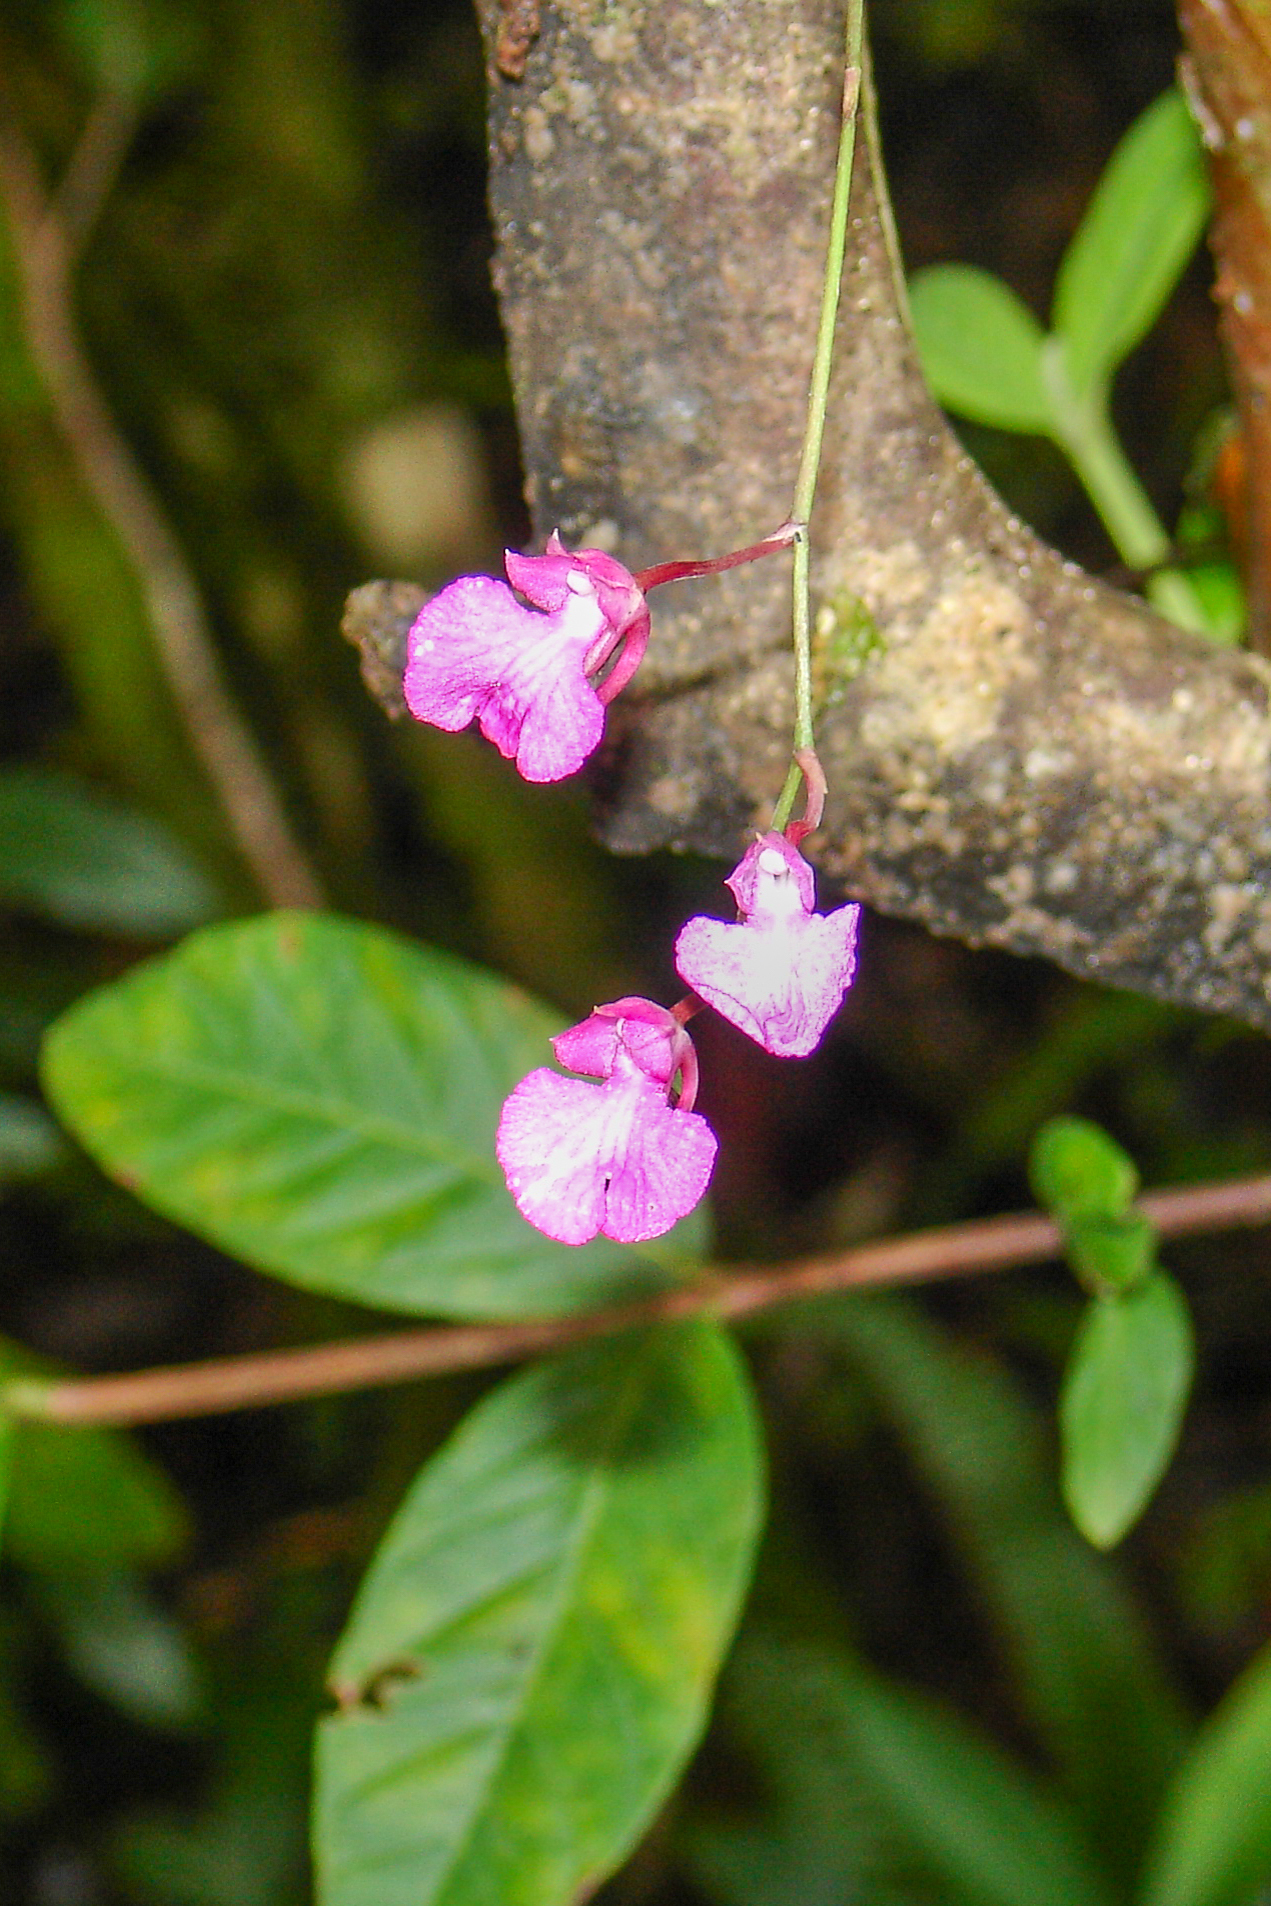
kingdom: Plantae
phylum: Tracheophyta
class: Liliopsida
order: Asparagales
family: Orchidaceae
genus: Comparettia
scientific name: Comparettia falcata
